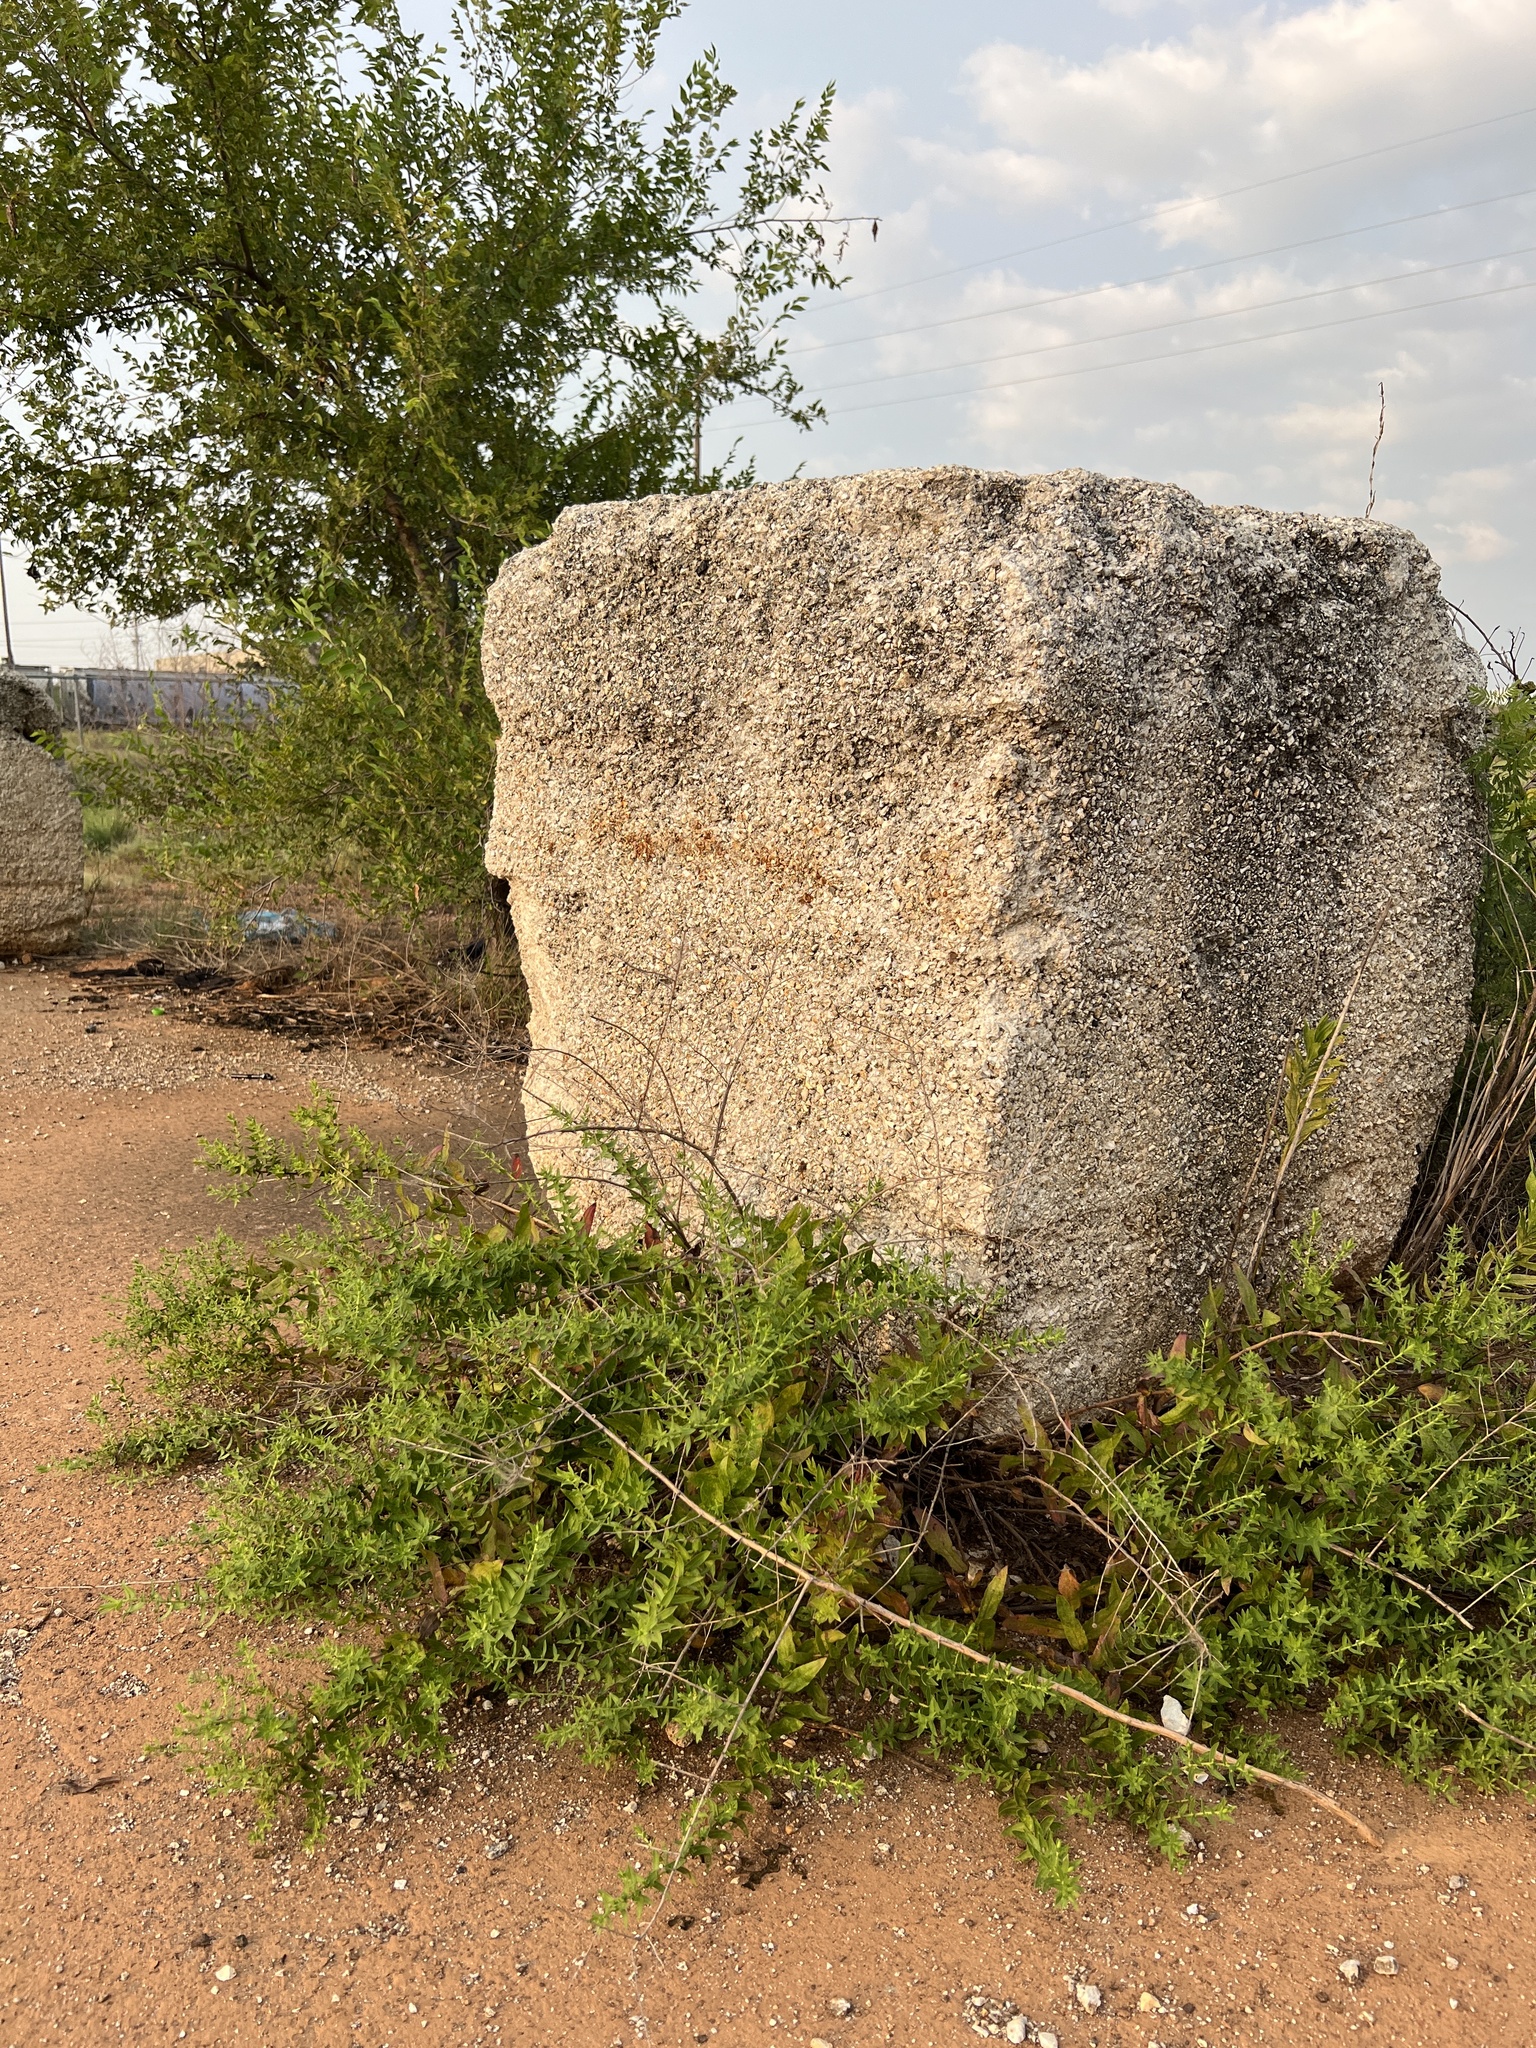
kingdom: Plantae
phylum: Tracheophyta
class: Magnoliopsida
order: Asterales
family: Asteraceae
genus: Symphyotrichum
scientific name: Symphyotrichum oblongifolium
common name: Aromatic aster
